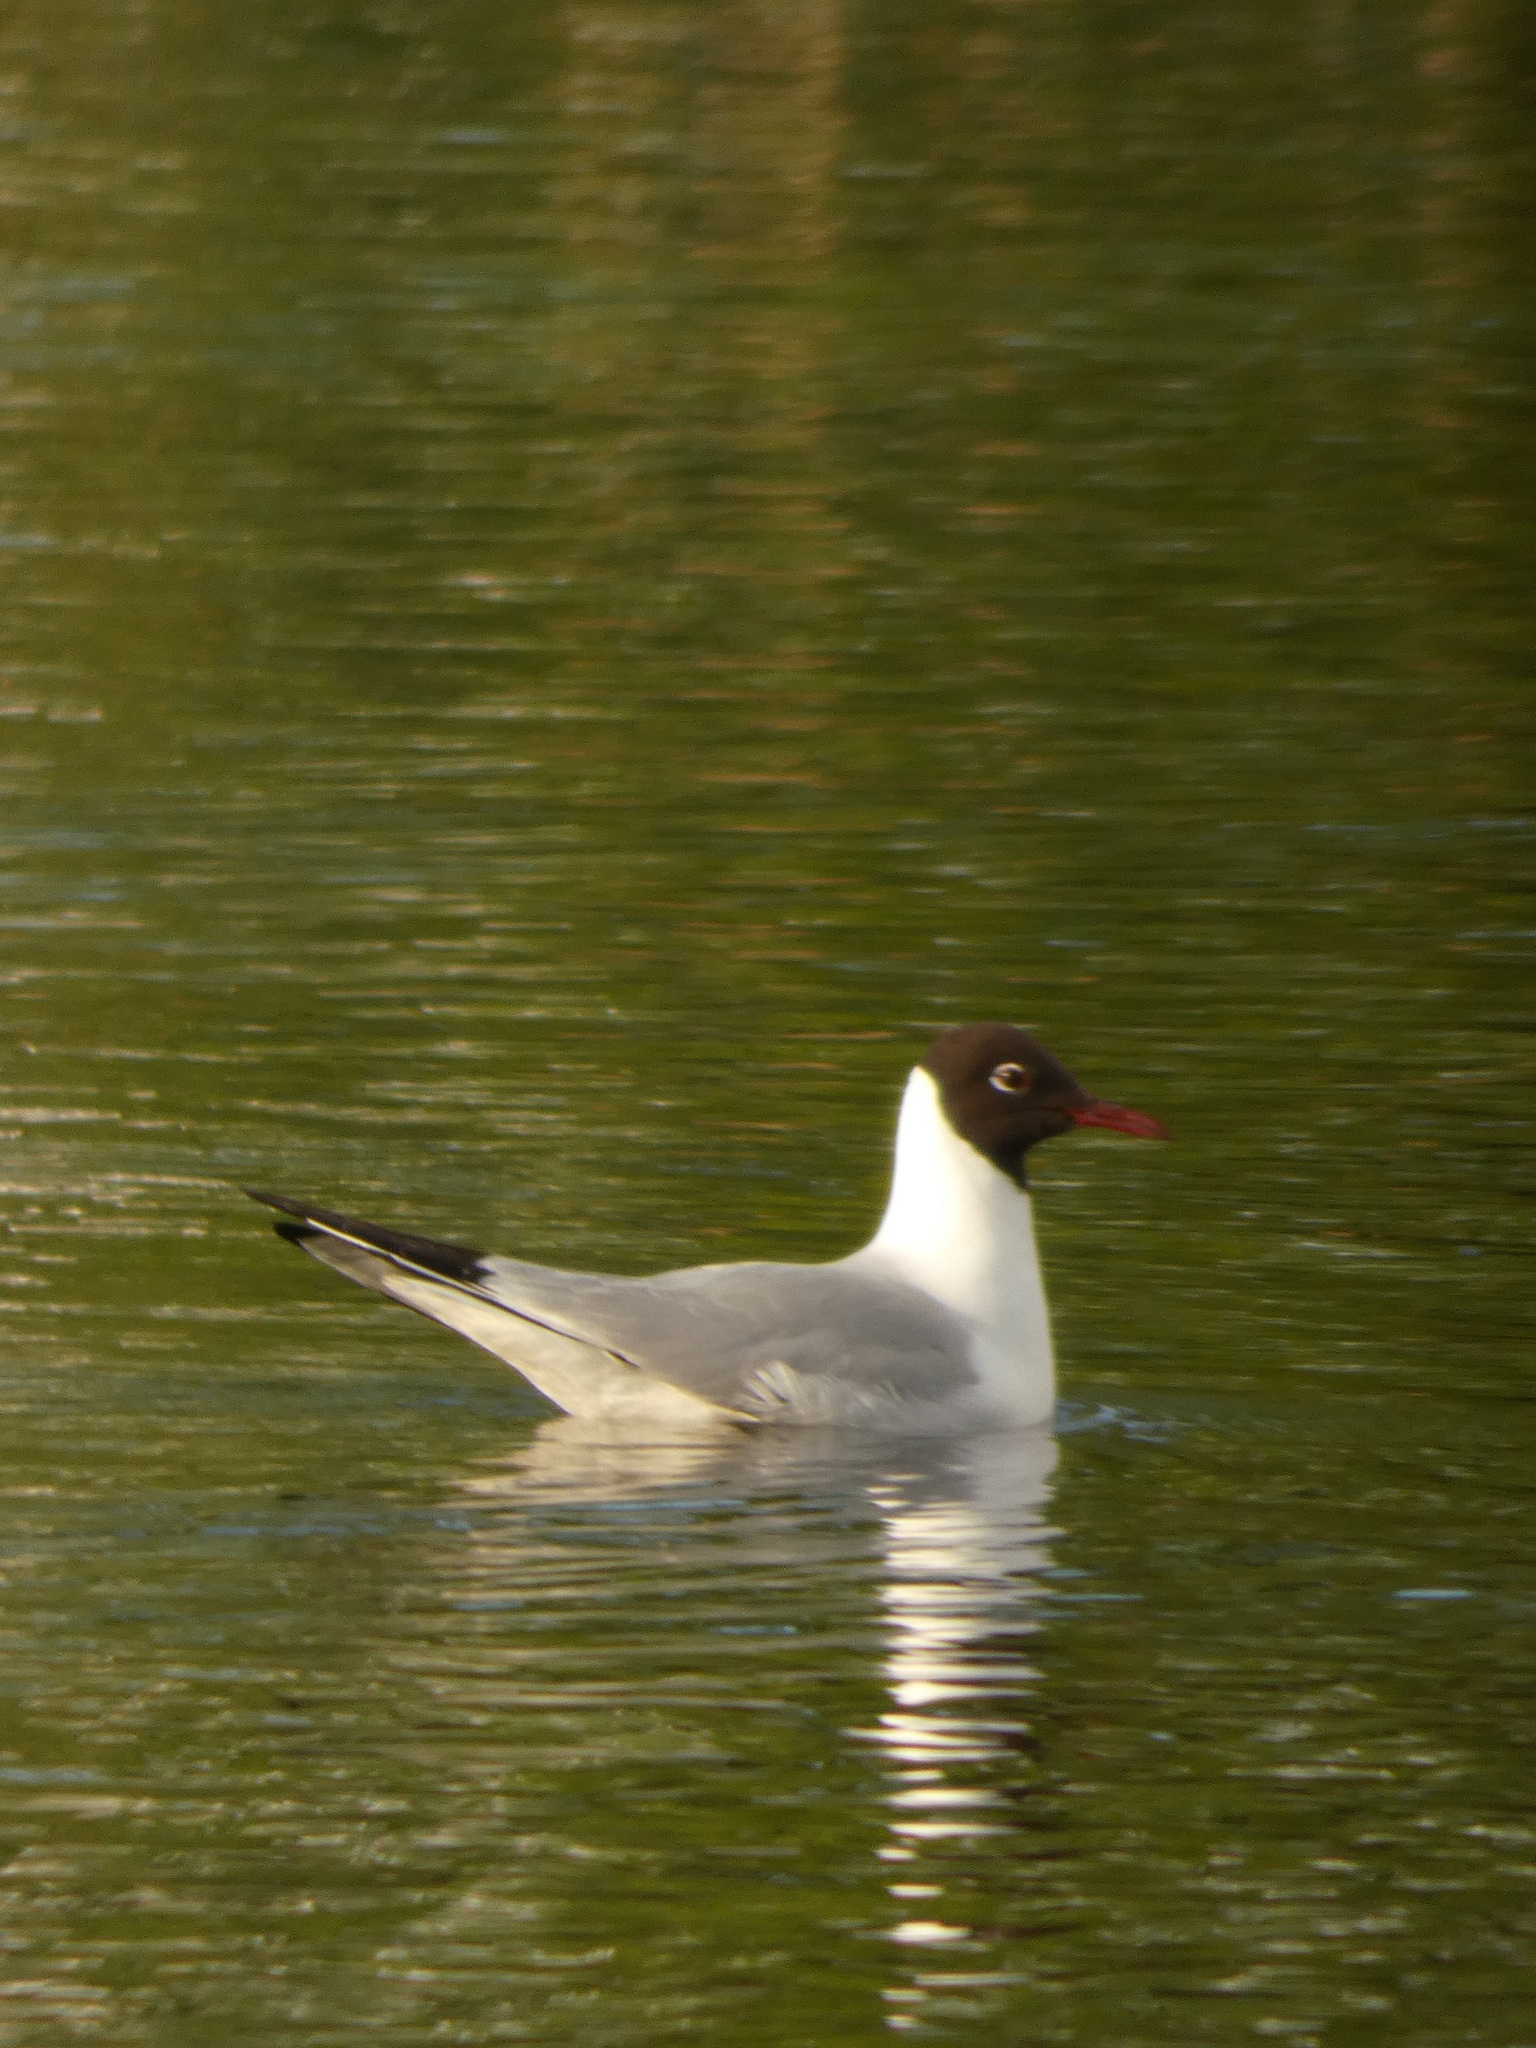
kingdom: Animalia
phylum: Chordata
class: Aves
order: Charadriiformes
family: Laridae
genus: Chroicocephalus
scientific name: Chroicocephalus ridibundus
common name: Black-headed gull
